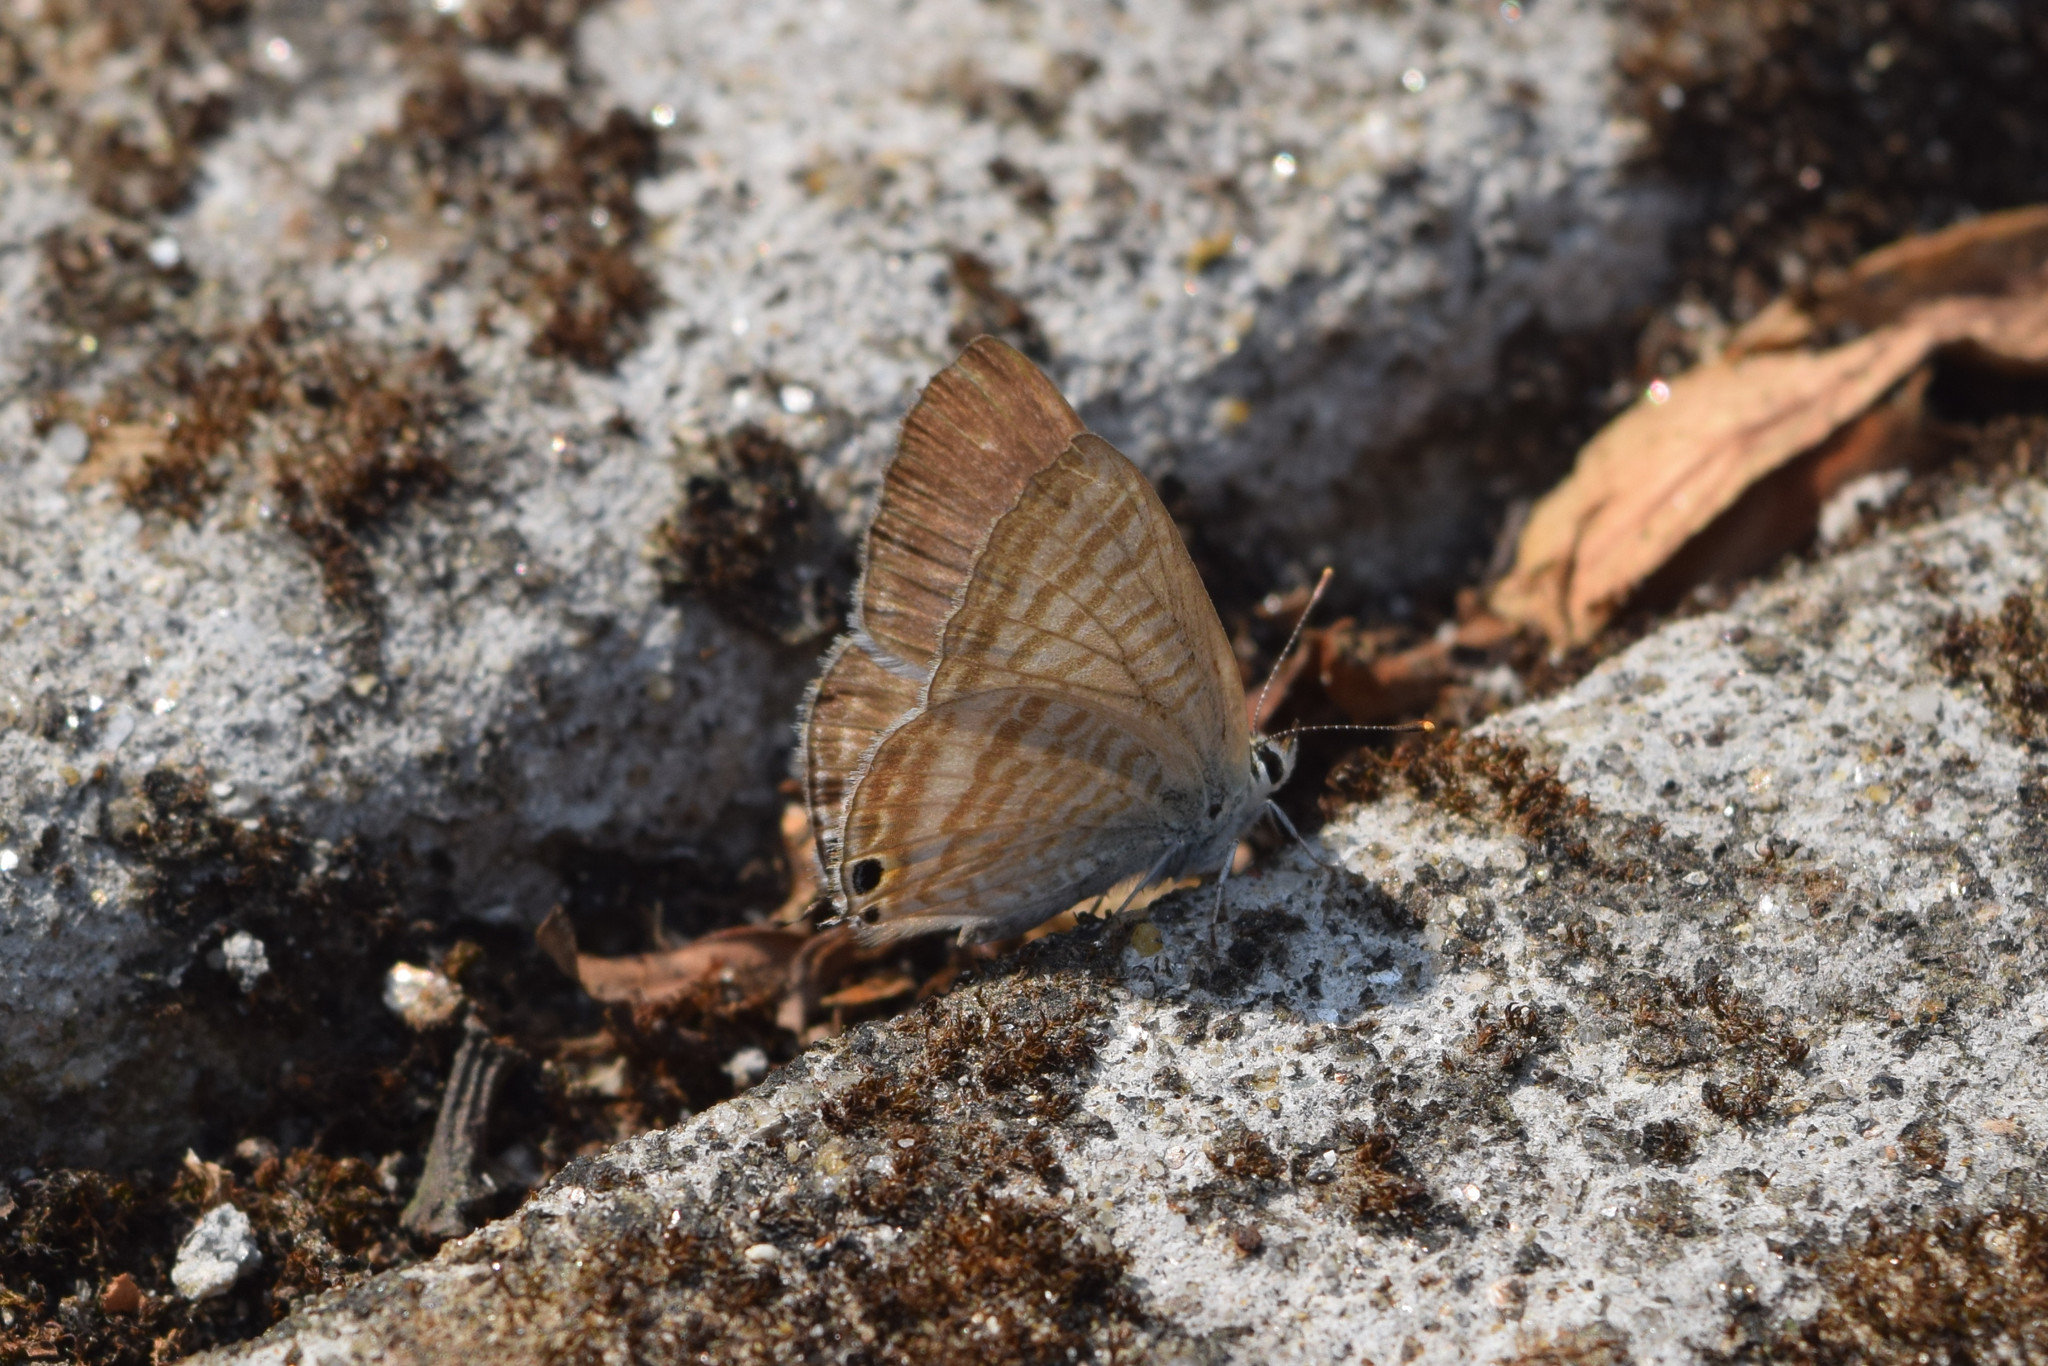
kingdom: Animalia
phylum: Arthropoda
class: Insecta
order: Lepidoptera
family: Lycaenidae
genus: Lampides
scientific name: Lampides boeticus
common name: Long-tailed blue
